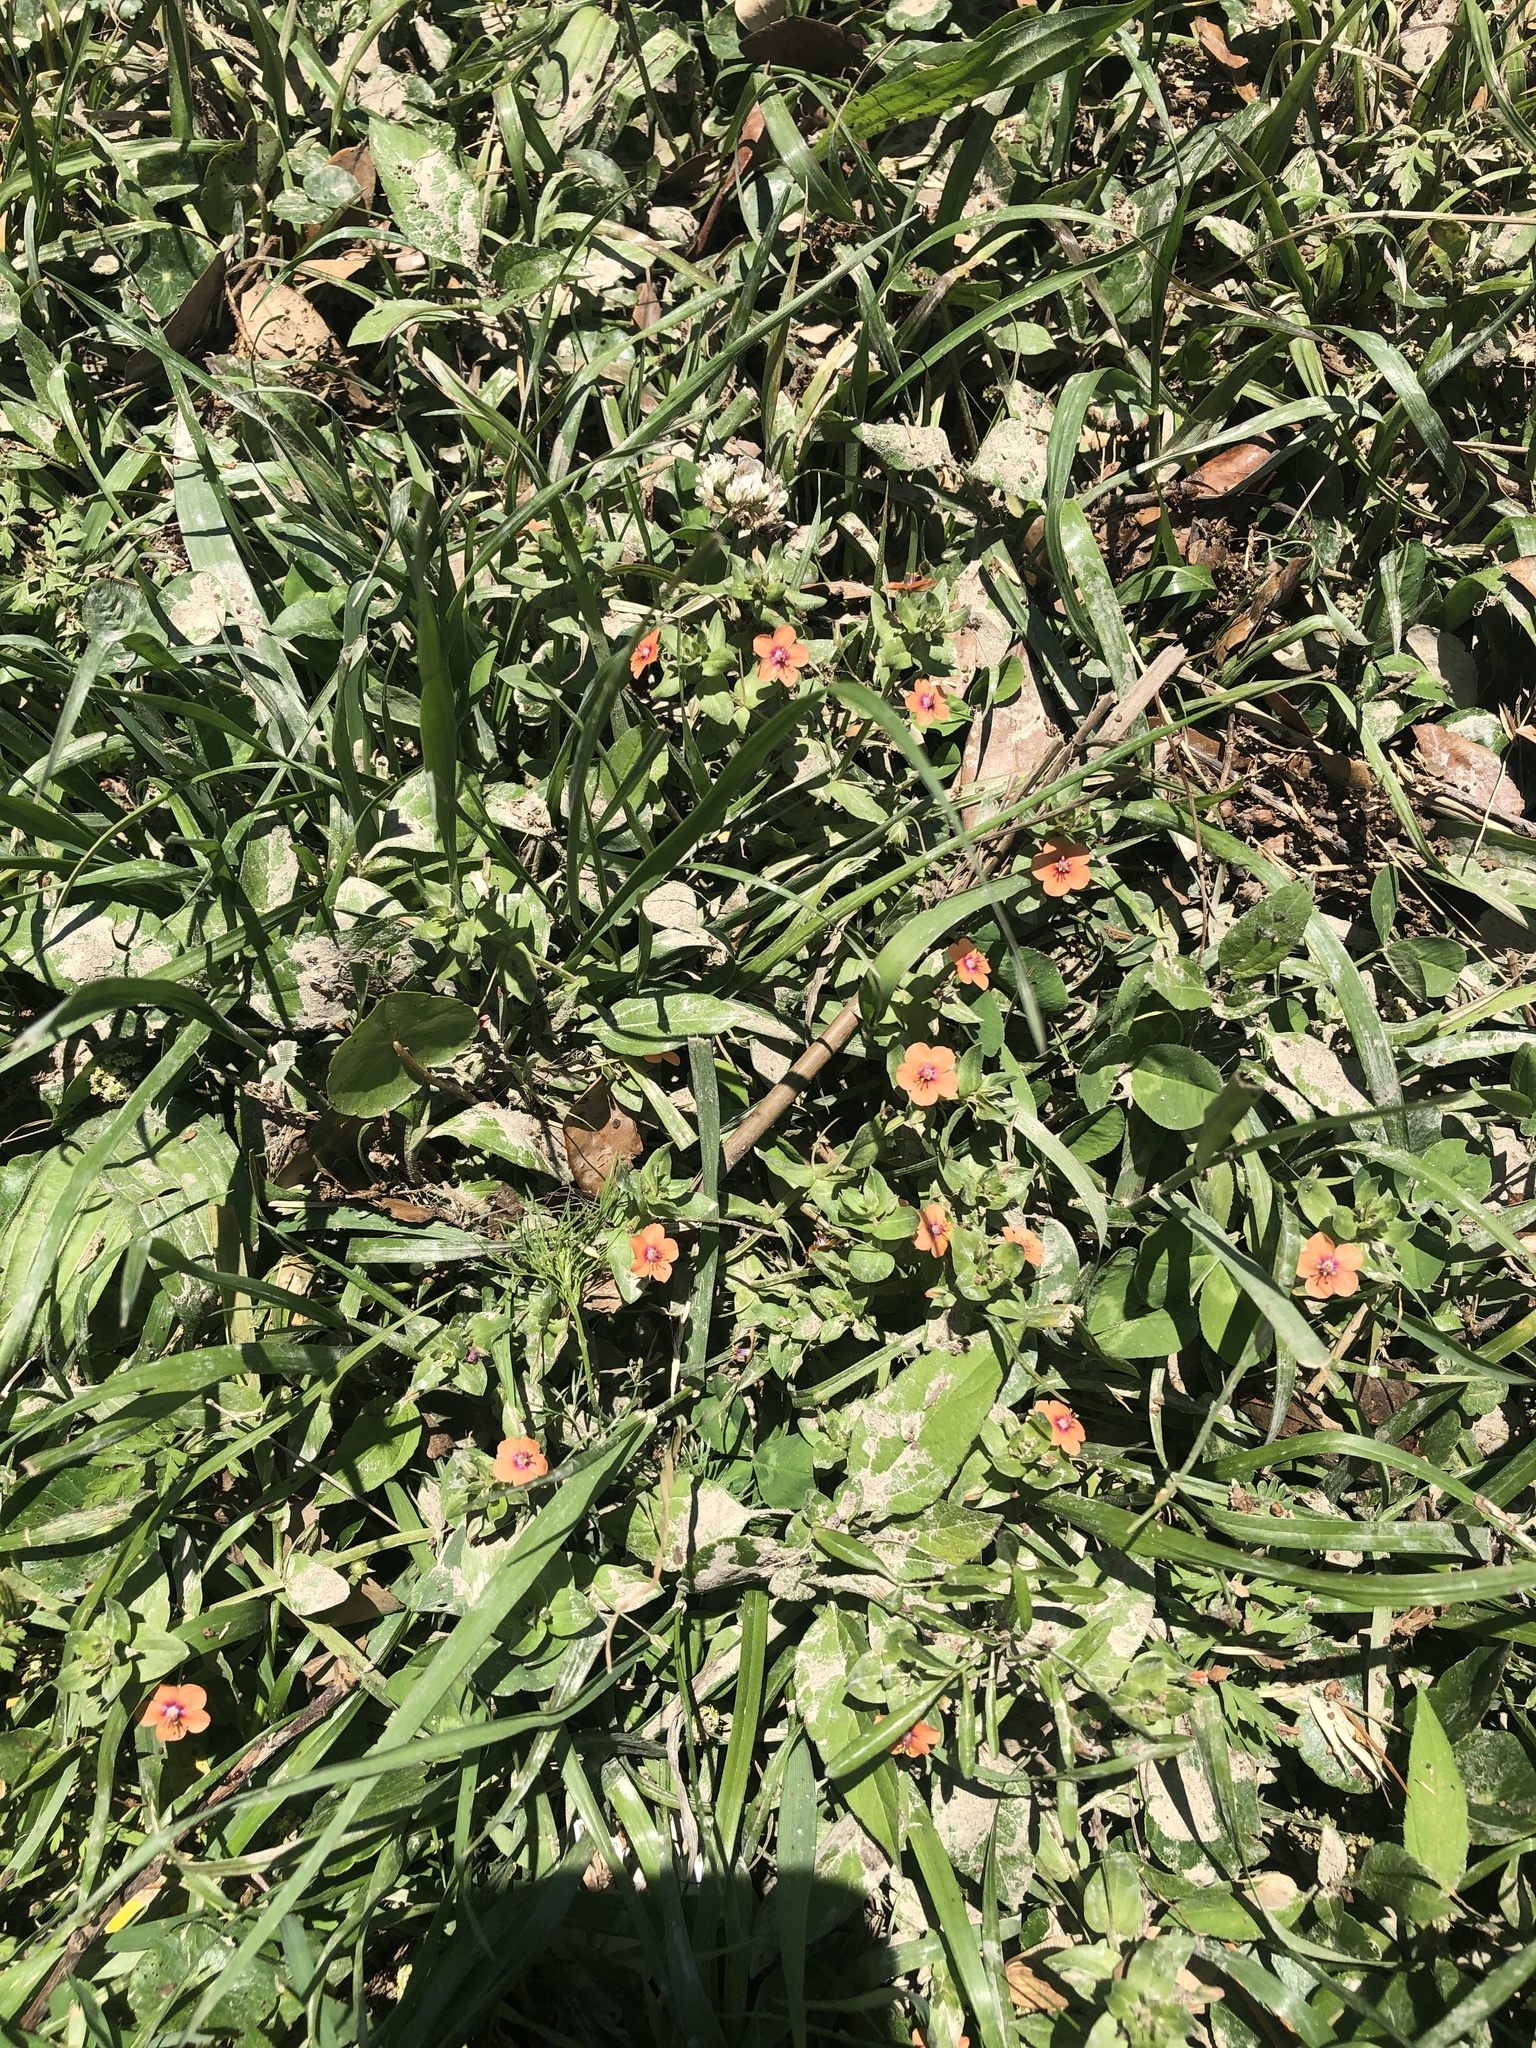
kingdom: Plantae
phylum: Tracheophyta
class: Magnoliopsida
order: Ericales
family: Primulaceae
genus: Lysimachia
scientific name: Lysimachia arvensis
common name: Scarlet pimpernel
